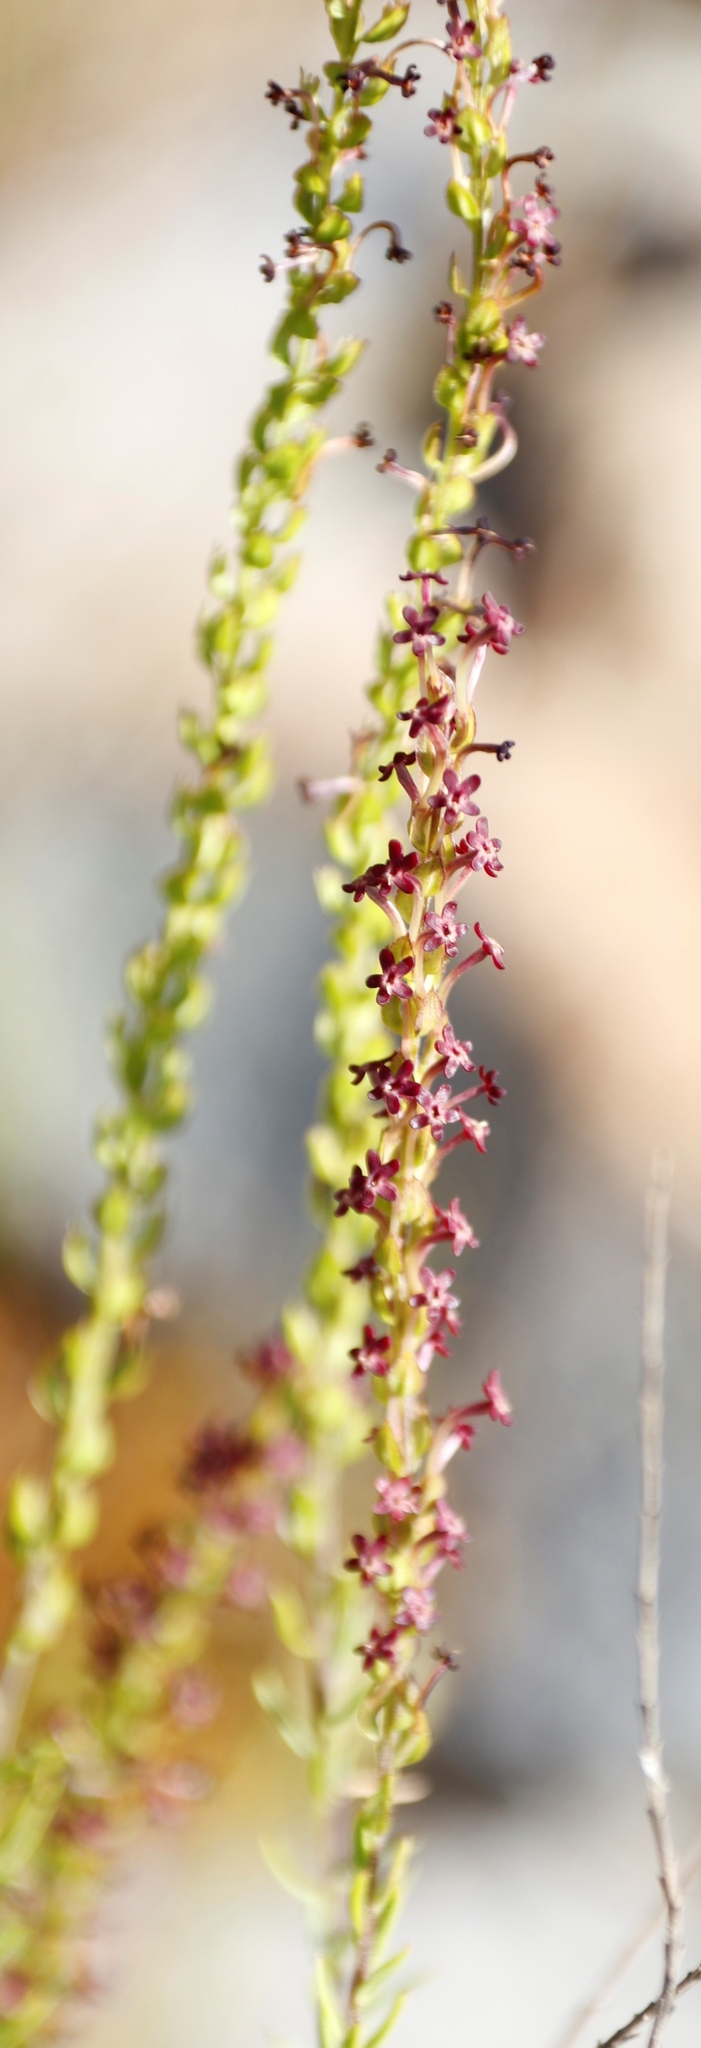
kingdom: Plantae
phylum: Tracheophyta
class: Magnoliopsida
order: Lamiales
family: Scrophulariaceae
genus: Microdon
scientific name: Microdon dubius
